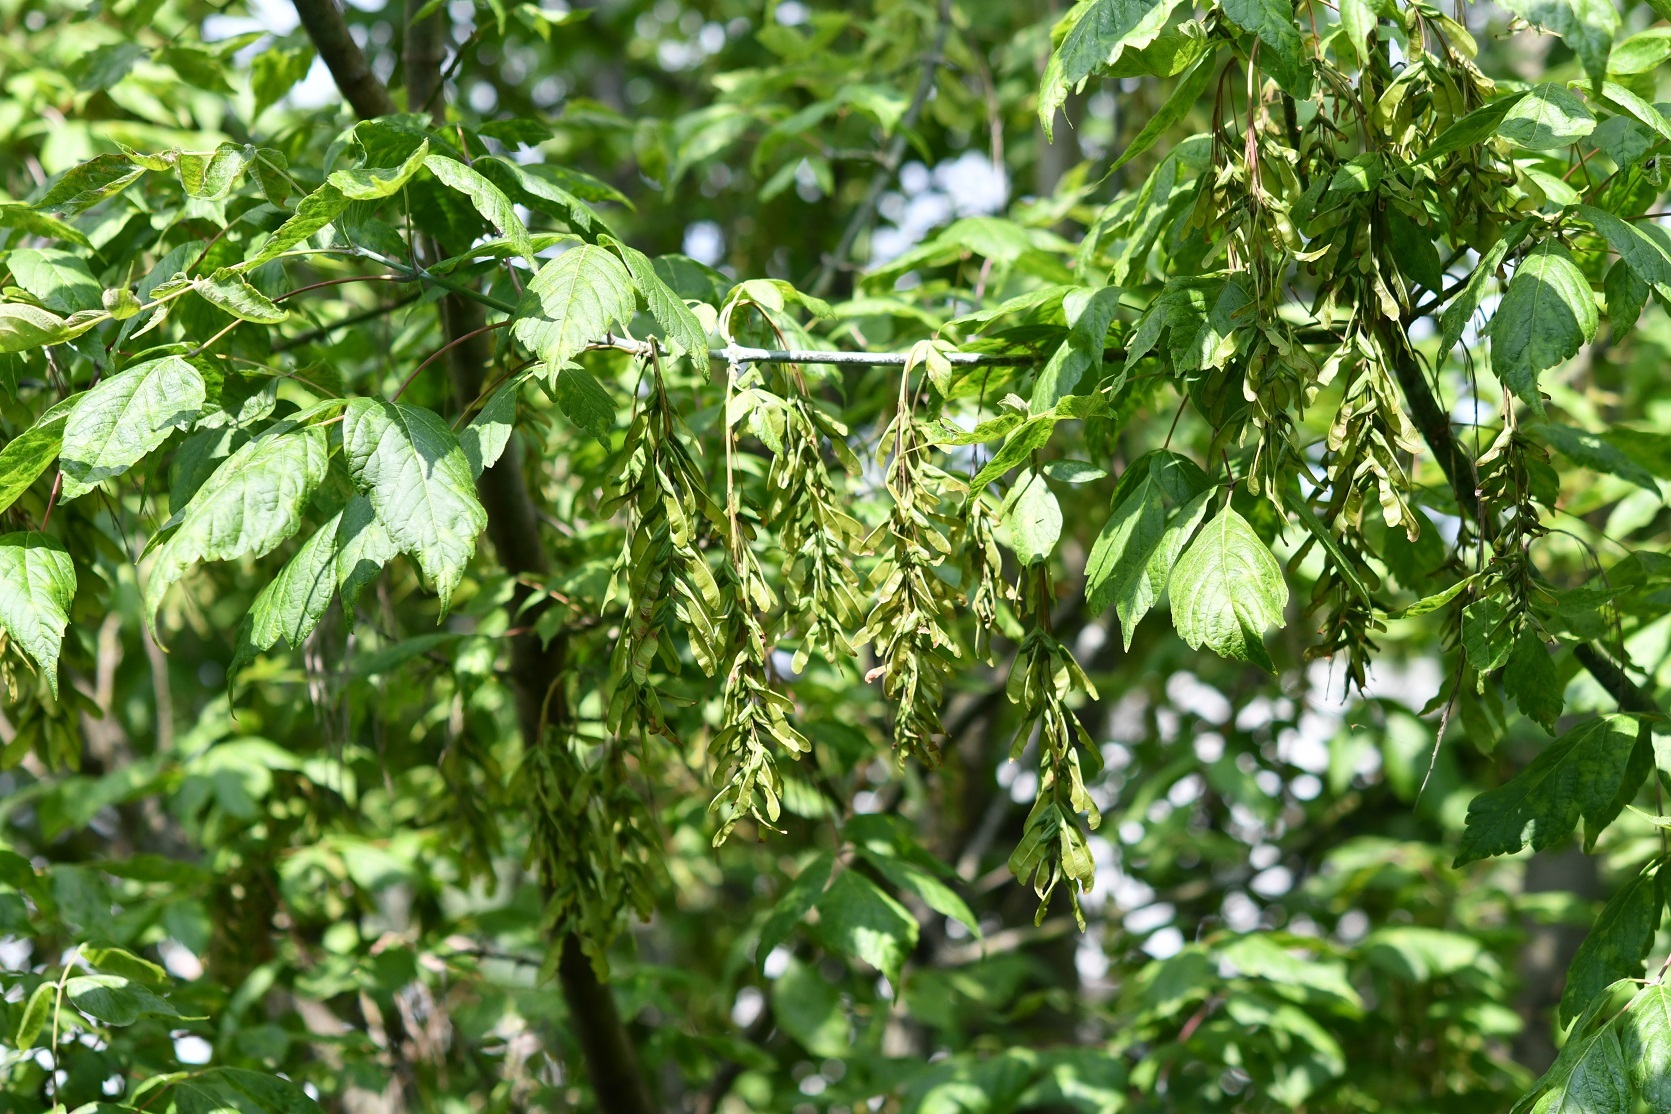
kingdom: Plantae
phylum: Tracheophyta
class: Magnoliopsida
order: Sapindales
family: Sapindaceae
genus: Acer
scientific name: Acer negundo
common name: Ashleaf maple
